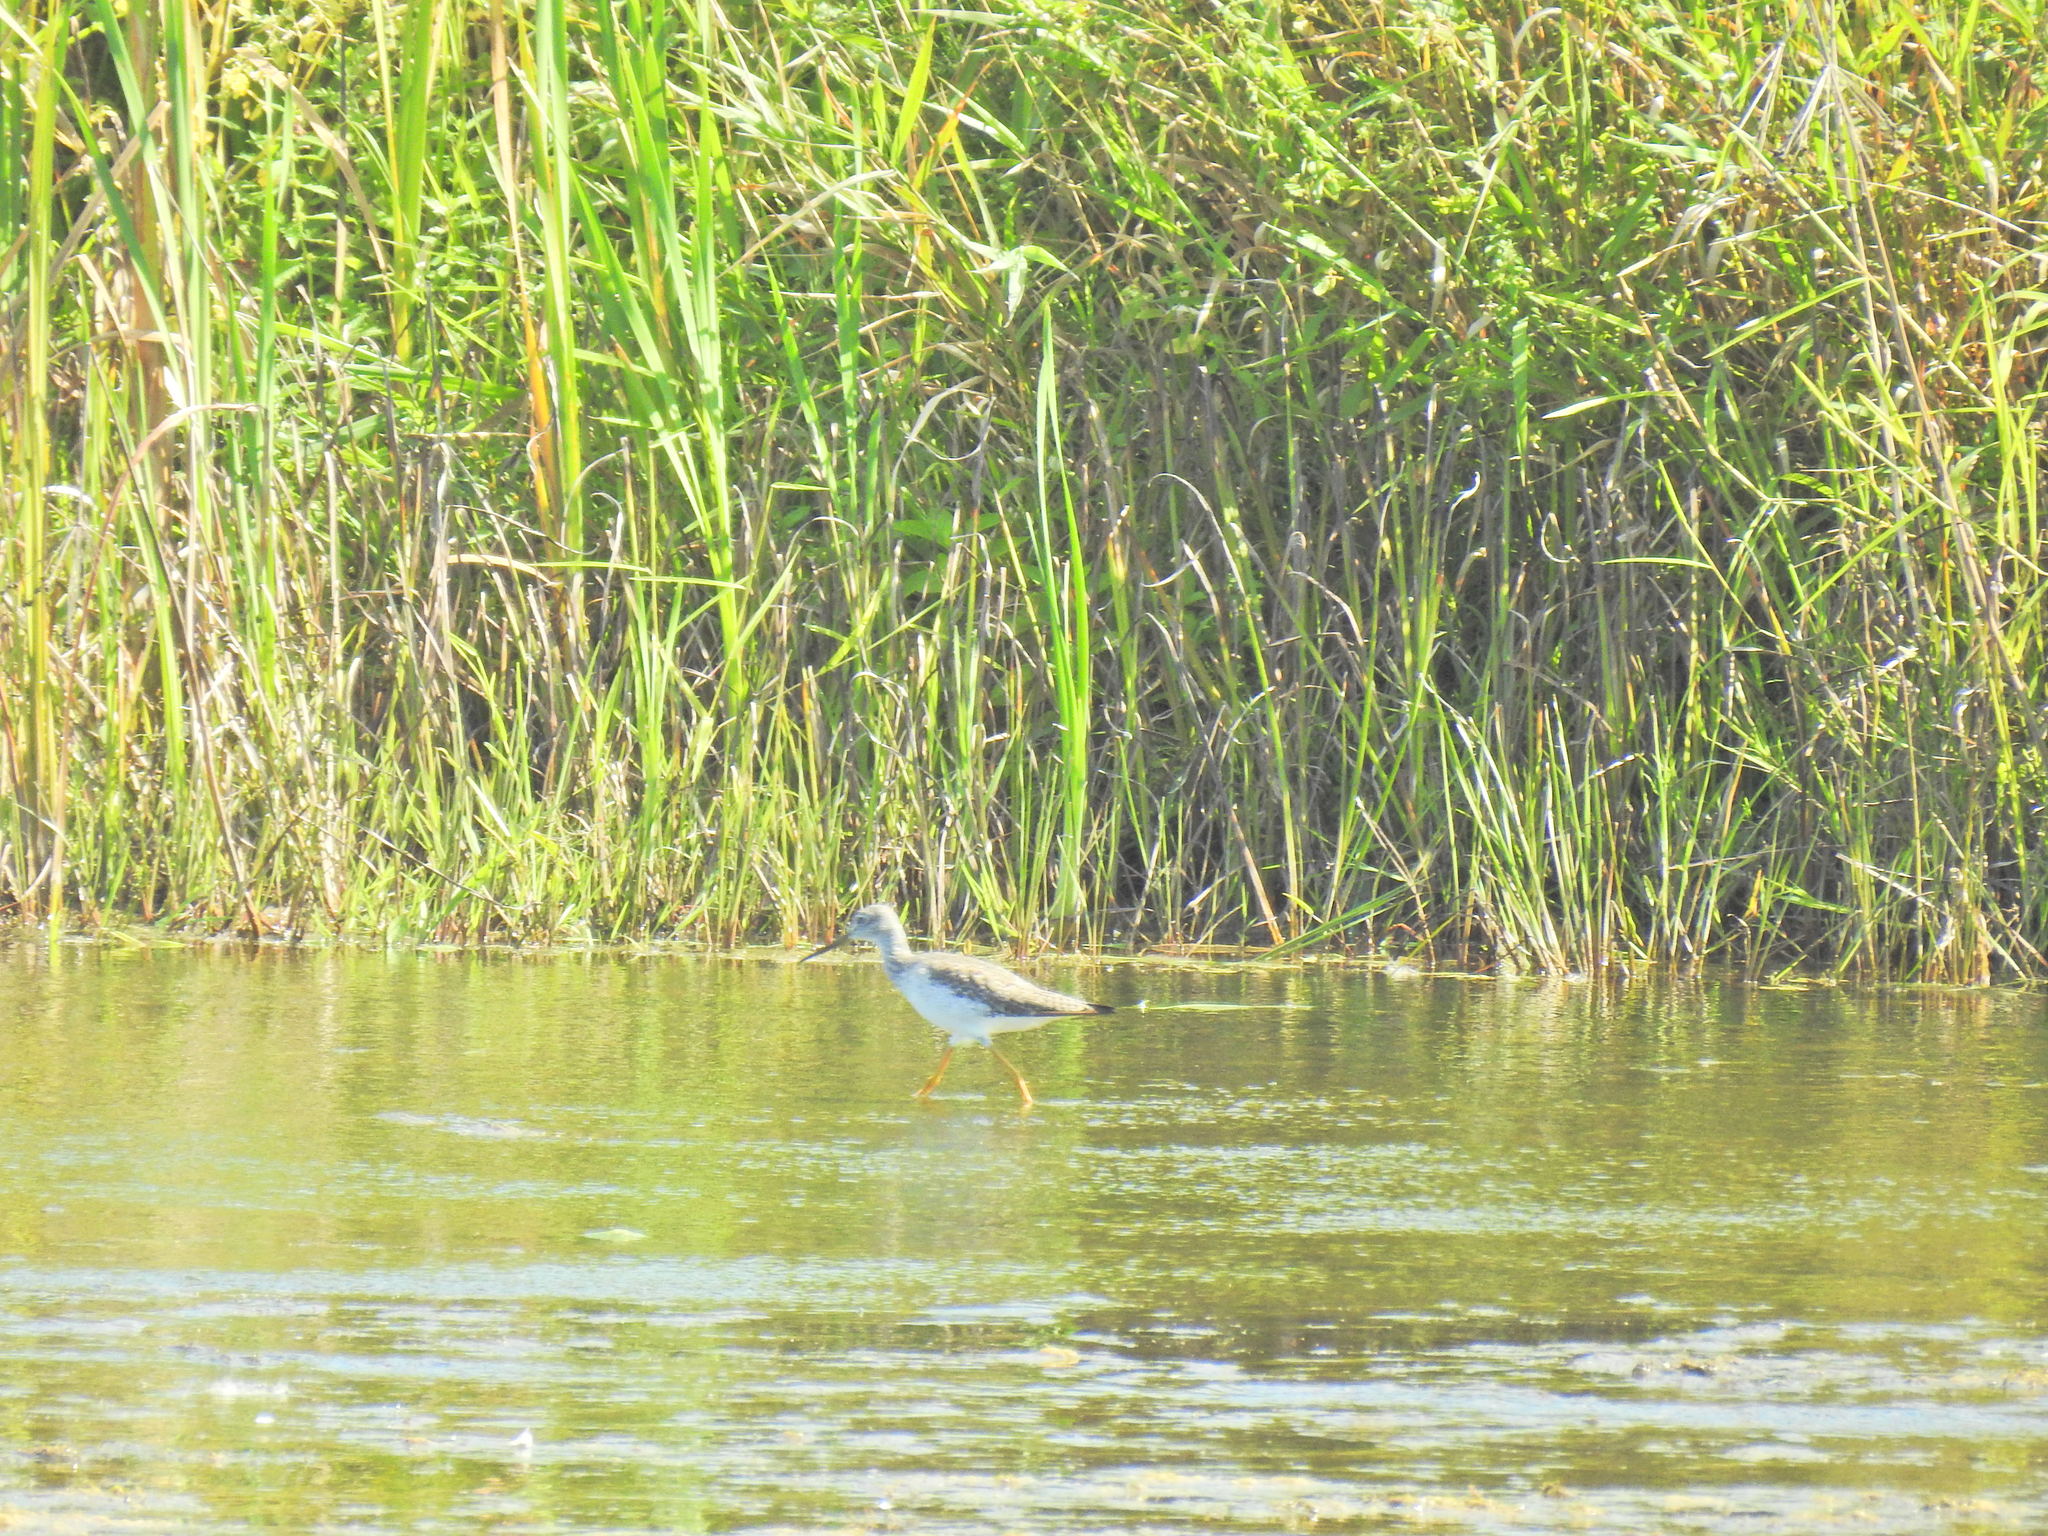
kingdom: Animalia
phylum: Chordata
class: Aves
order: Charadriiformes
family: Scolopacidae
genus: Tringa
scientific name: Tringa melanoleuca
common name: Greater yellowlegs
